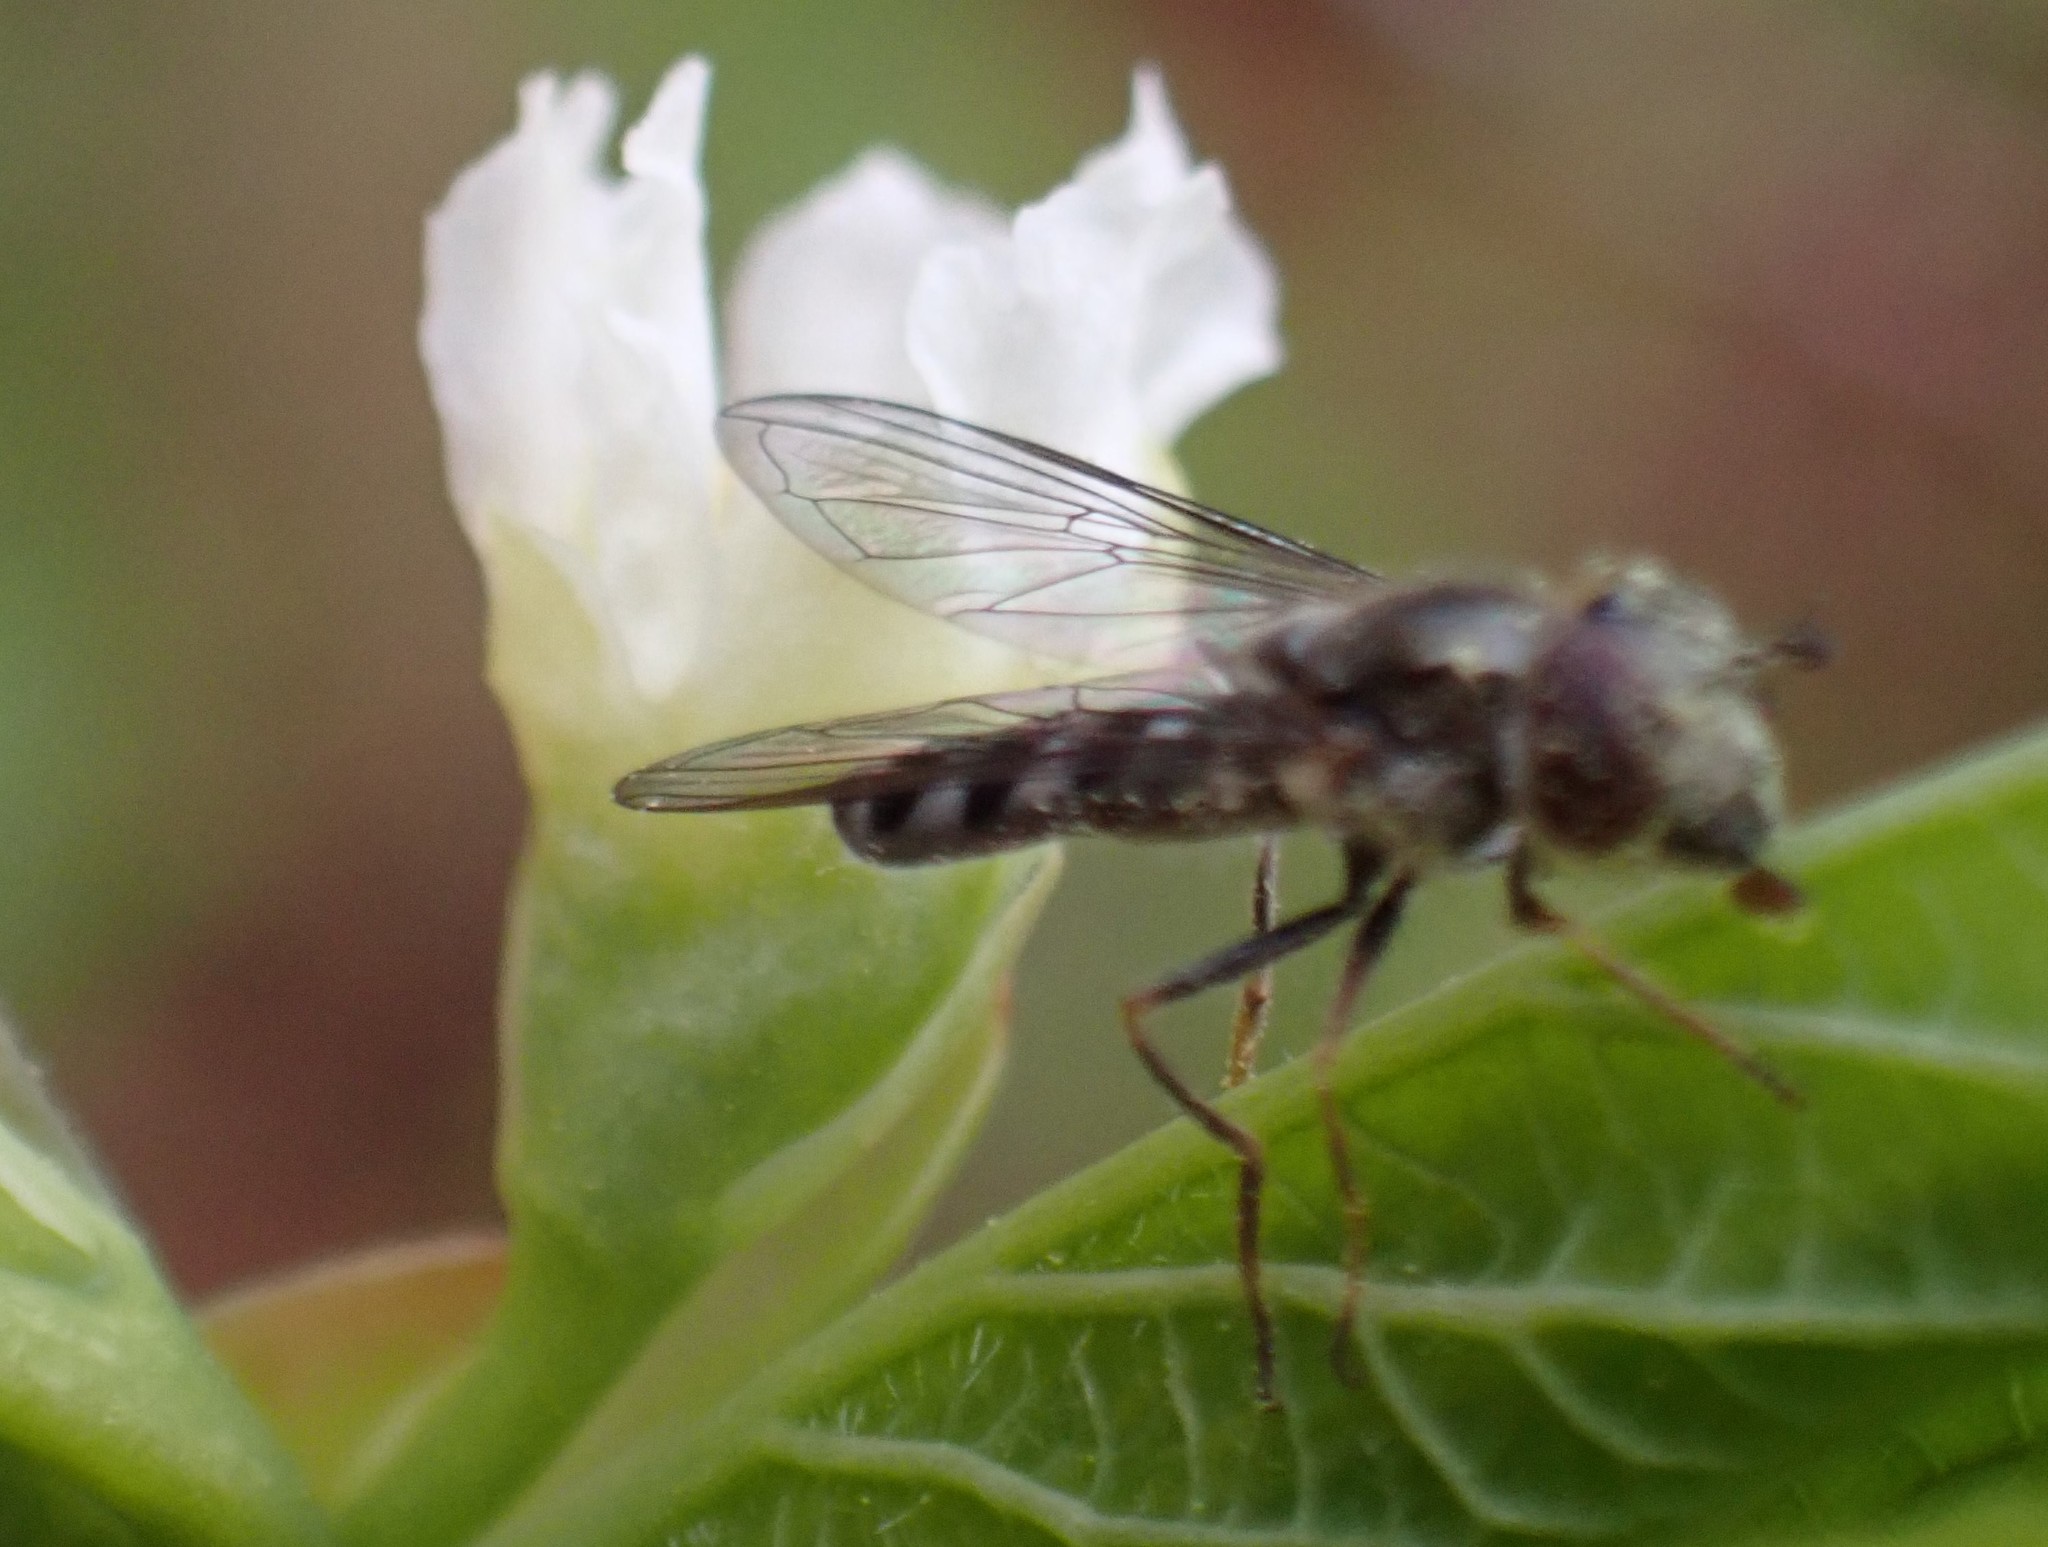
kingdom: Animalia
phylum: Arthropoda
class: Insecta
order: Diptera
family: Syrphidae
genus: Platycheirus
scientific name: Platycheirus trichopus
